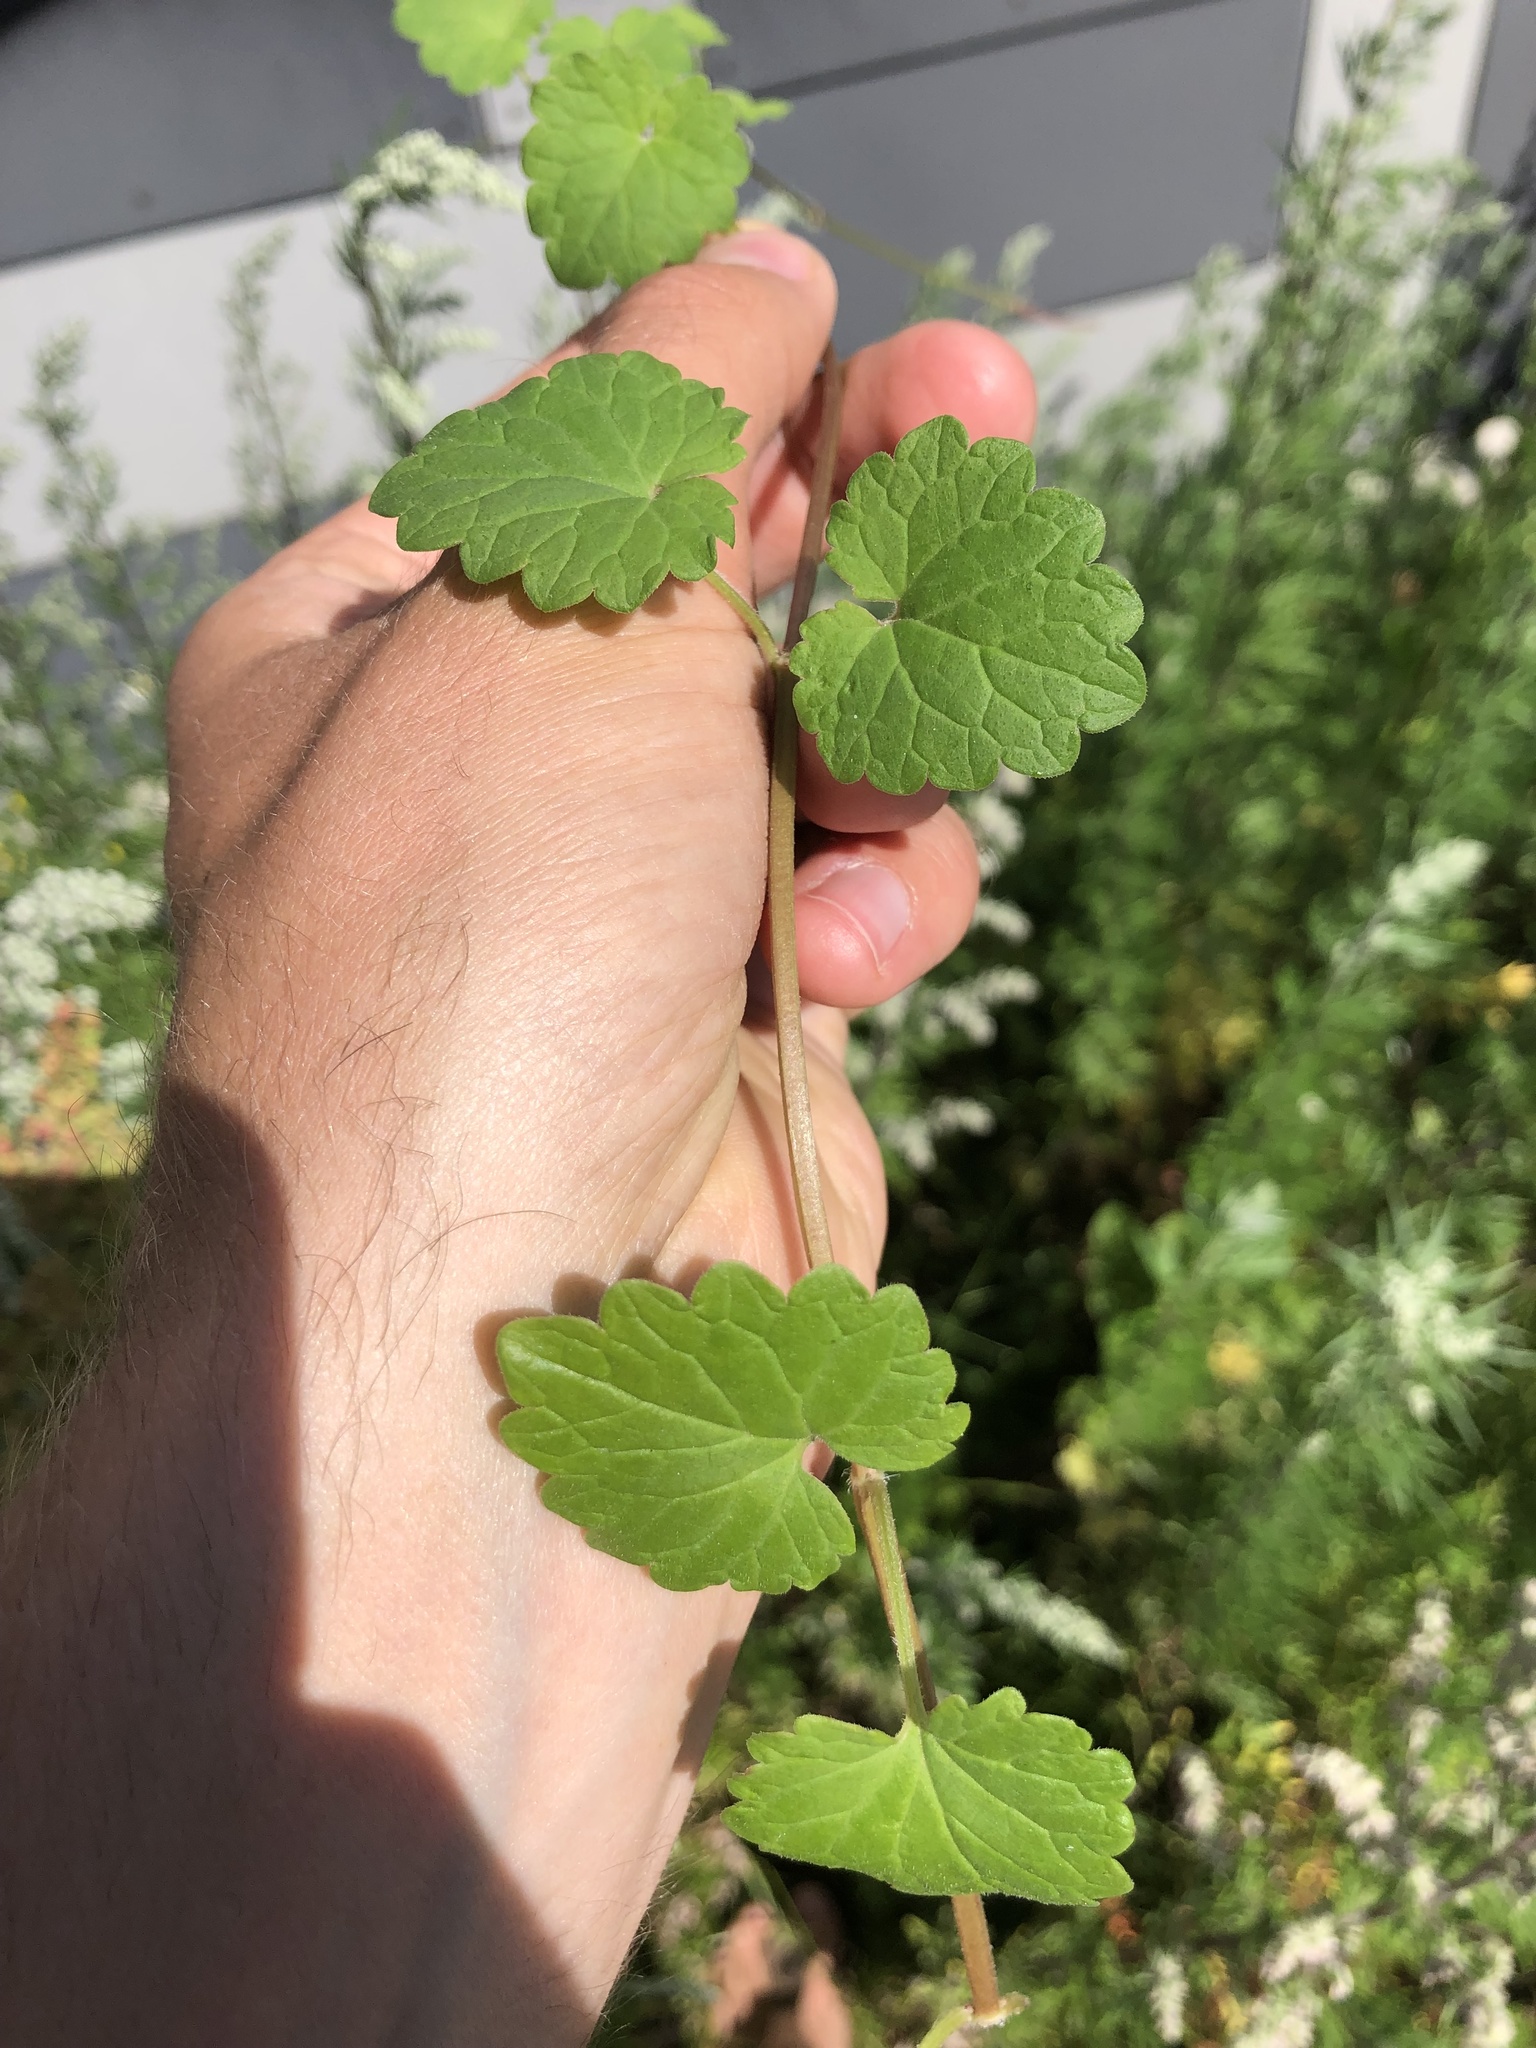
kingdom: Plantae
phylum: Tracheophyta
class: Magnoliopsida
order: Lamiales
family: Lamiaceae
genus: Glechoma
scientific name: Glechoma hederacea
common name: Ground ivy
